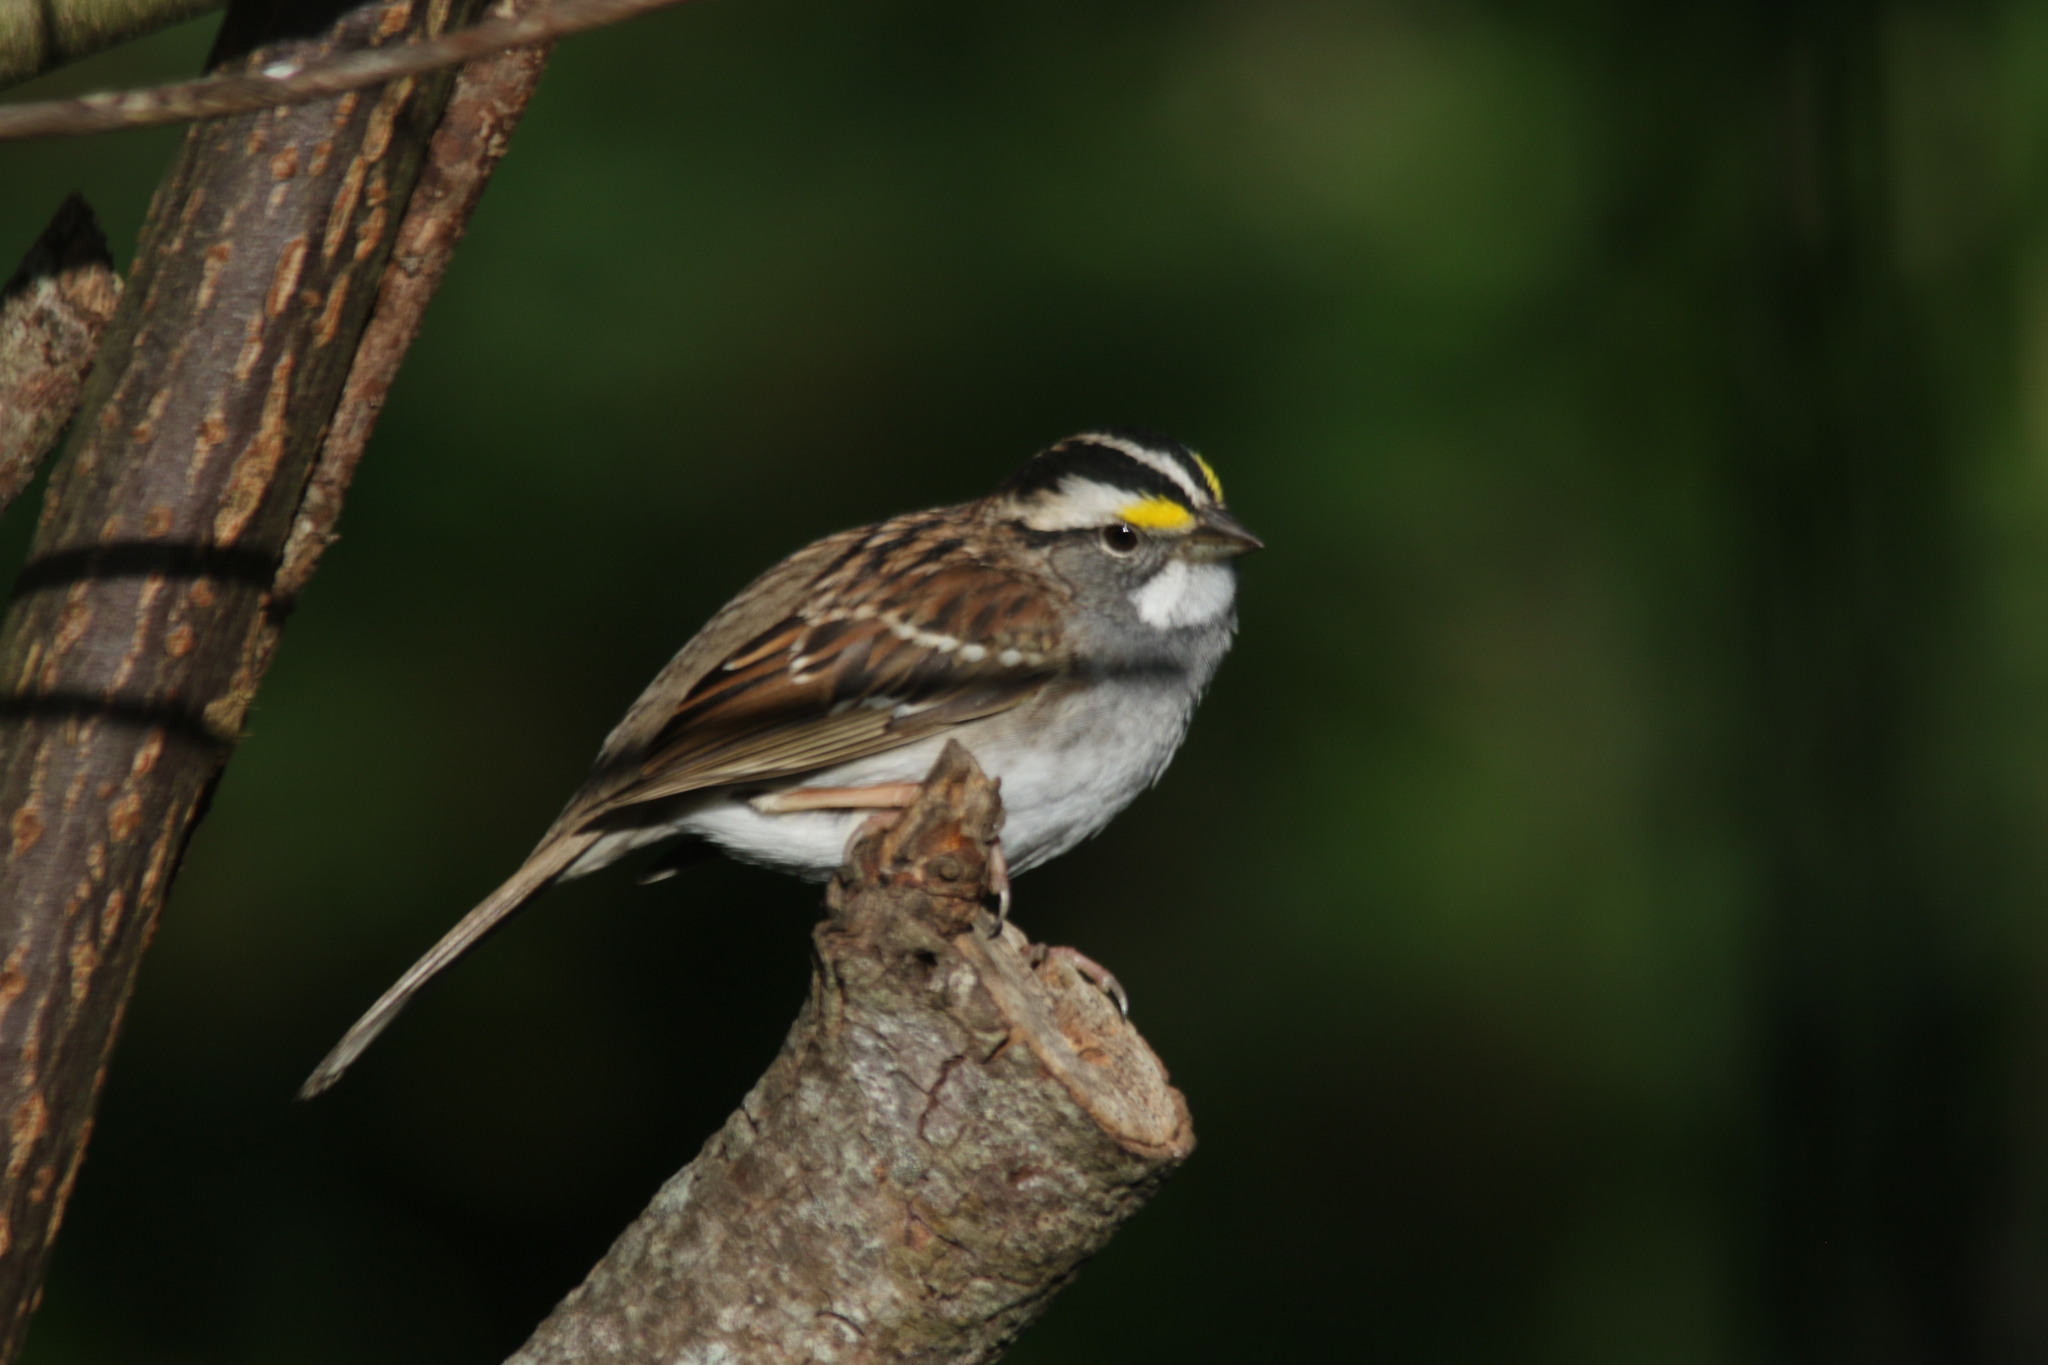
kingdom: Animalia
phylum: Chordata
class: Aves
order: Passeriformes
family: Passerellidae
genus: Zonotrichia
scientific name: Zonotrichia albicollis
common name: White-throated sparrow
